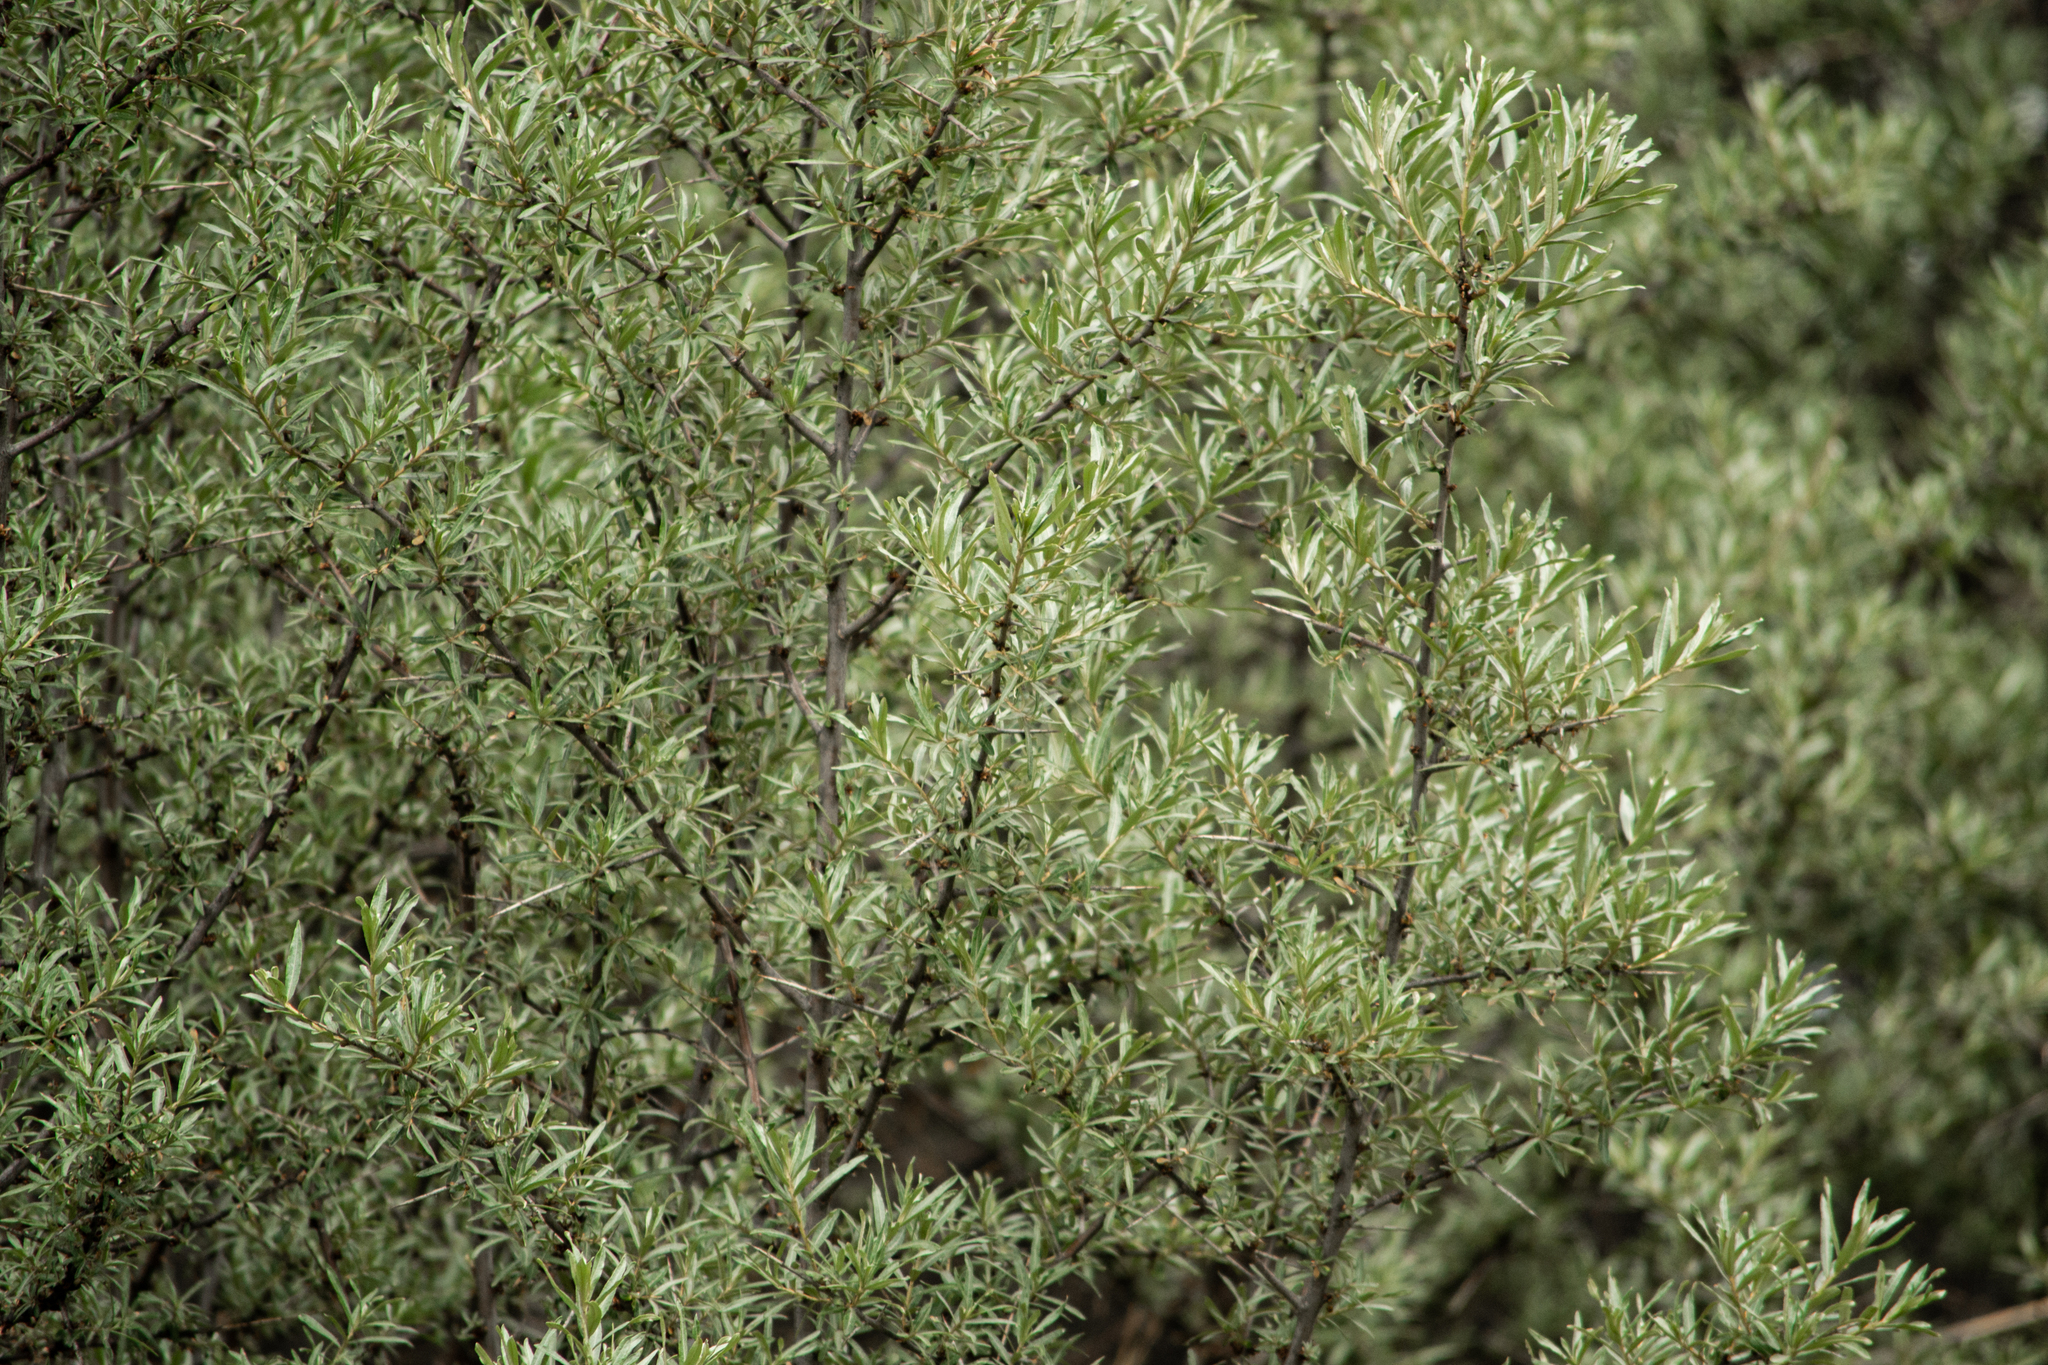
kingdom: Plantae
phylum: Tracheophyta
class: Magnoliopsida
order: Rosales
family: Elaeagnaceae
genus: Hippophae
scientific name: Hippophae rhamnoides
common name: Sea-buckthorn
